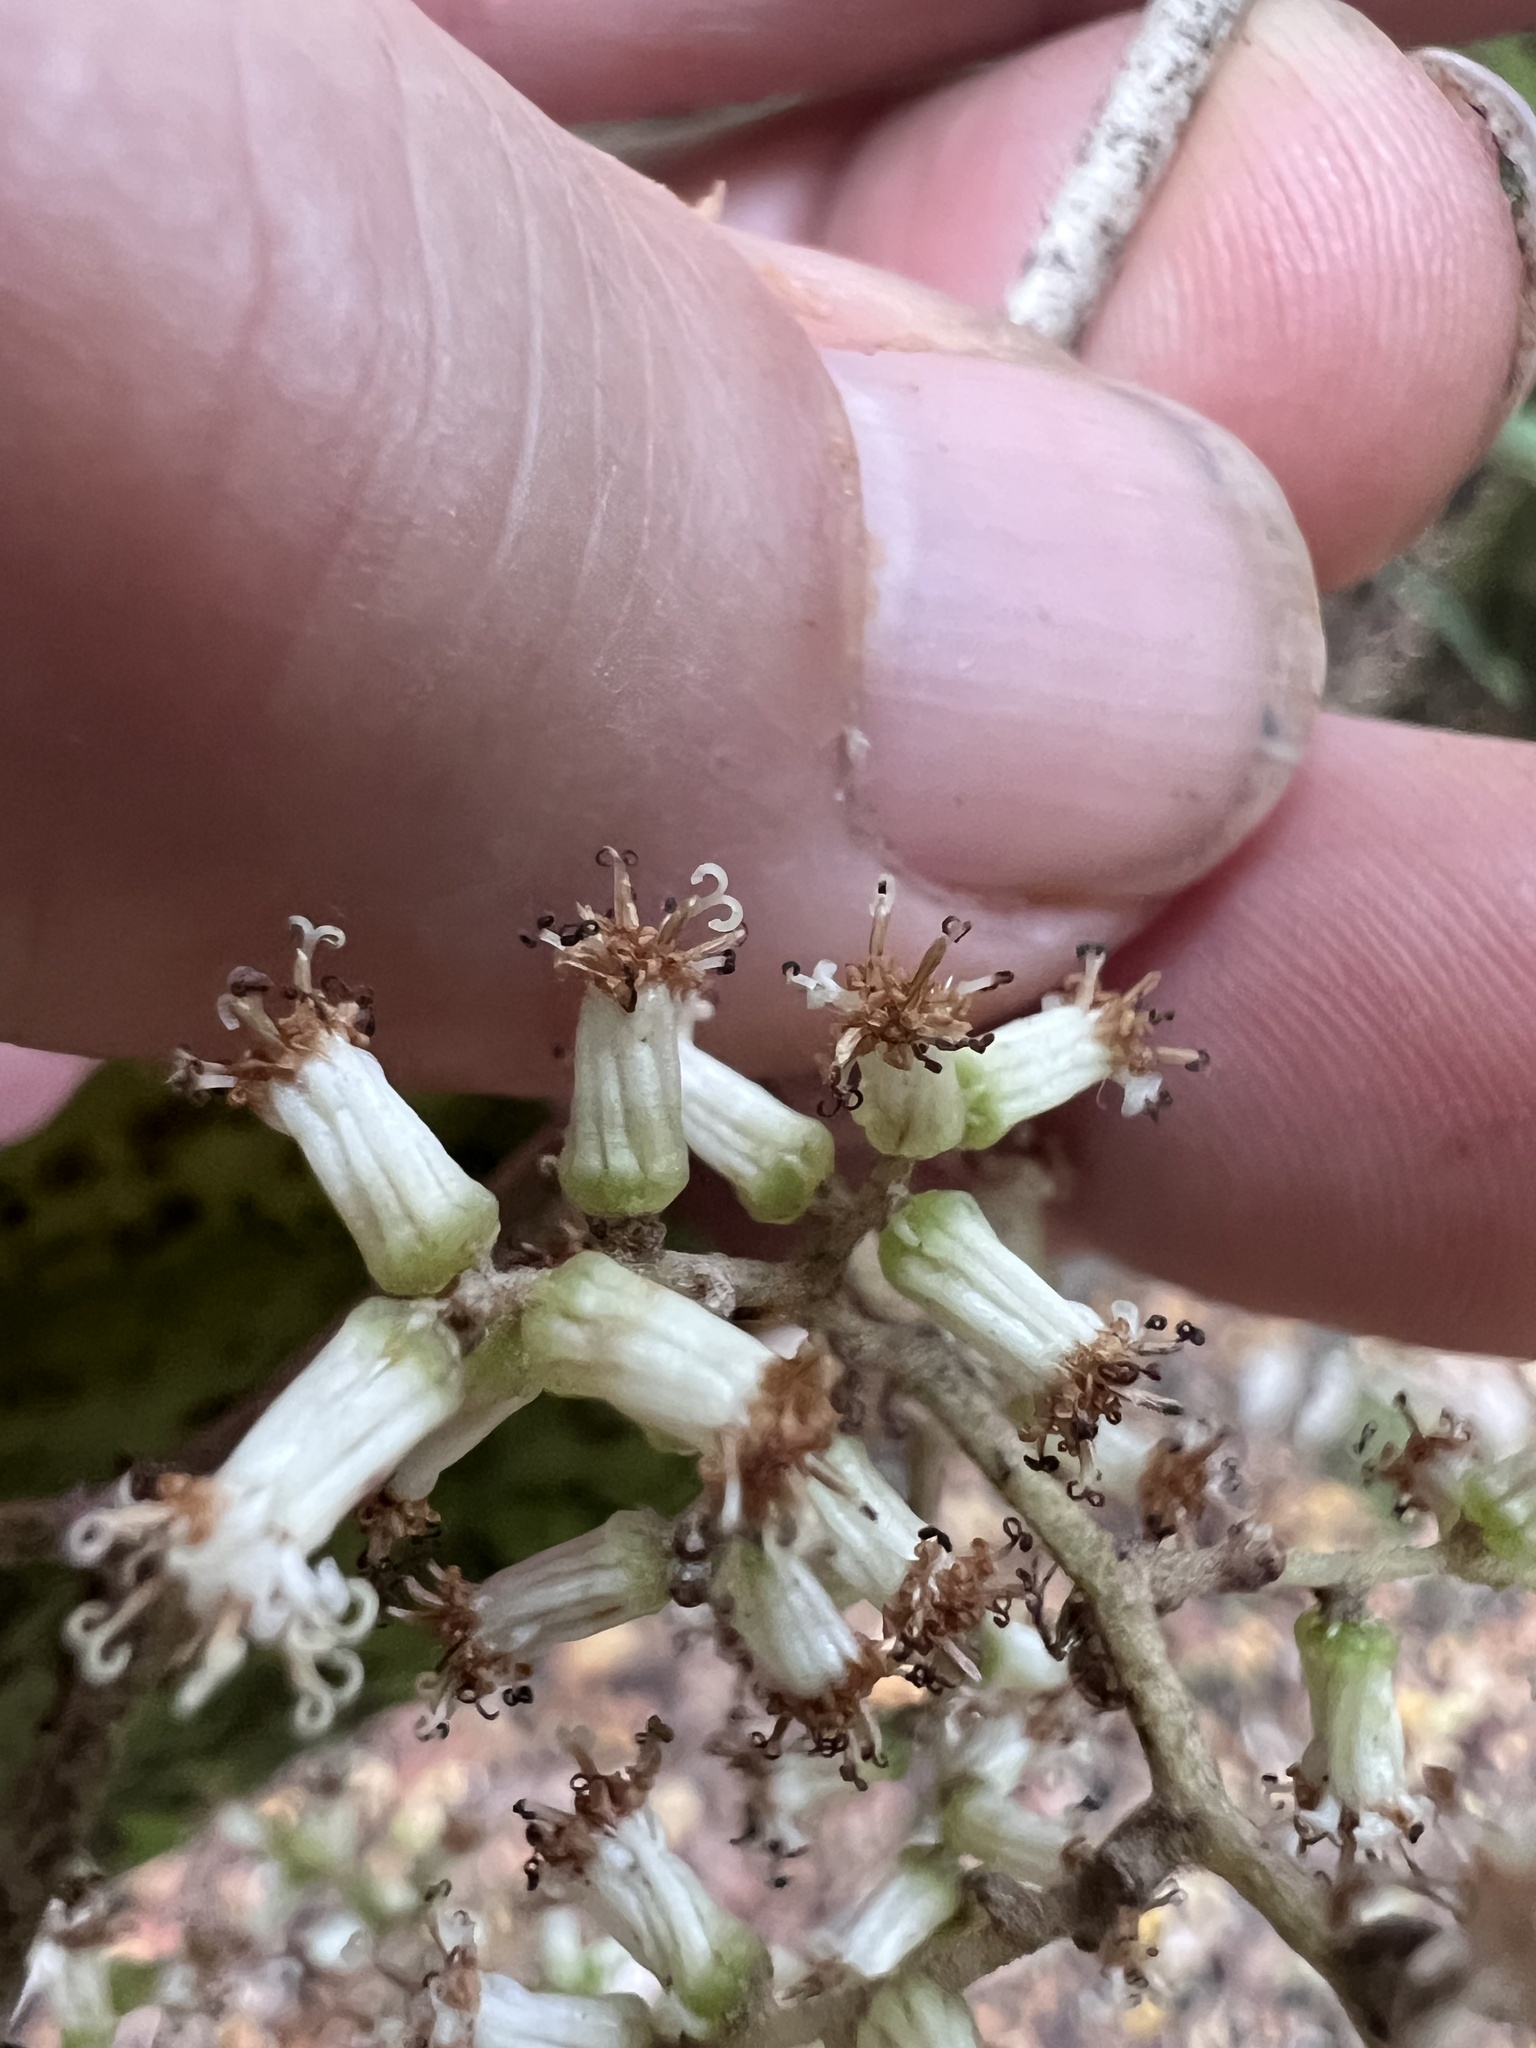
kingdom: Plantae
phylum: Tracheophyta
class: Magnoliopsida
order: Asterales
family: Asteraceae
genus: Brachyglottis
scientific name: Brachyglottis repanda
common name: Hedge ragwort
